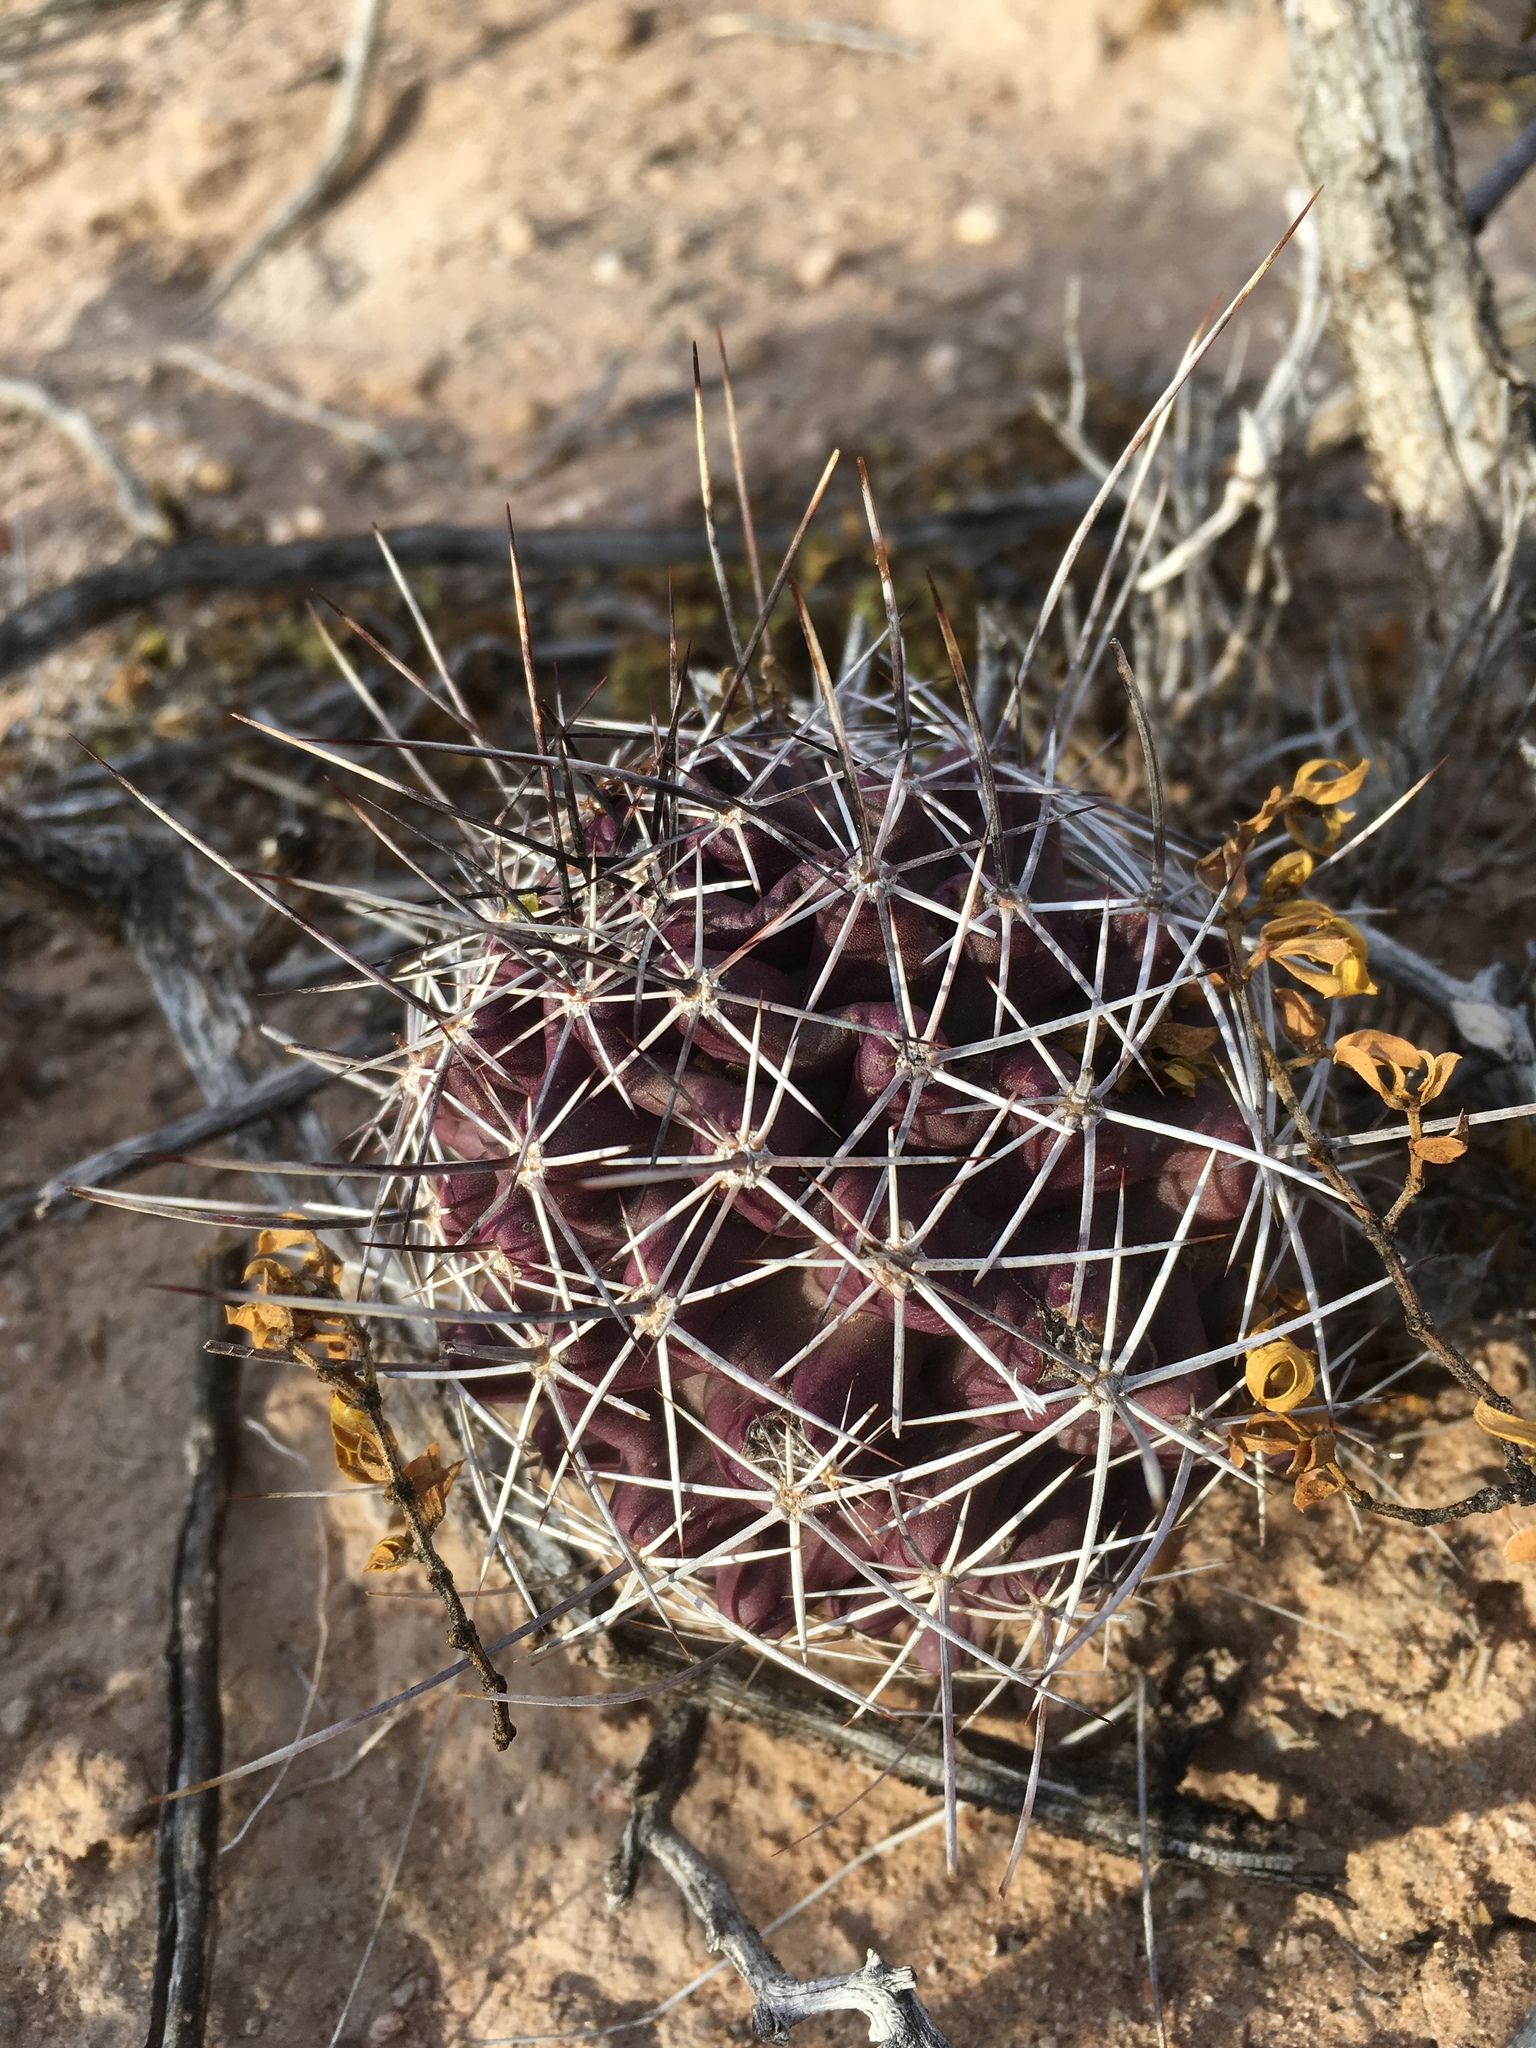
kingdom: Plantae
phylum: Tracheophyta
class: Magnoliopsida
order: Caryophyllales
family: Cactaceae
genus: Echinocereus
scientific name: Echinocereus fendleri
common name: Fendler's hedgehog cactus
